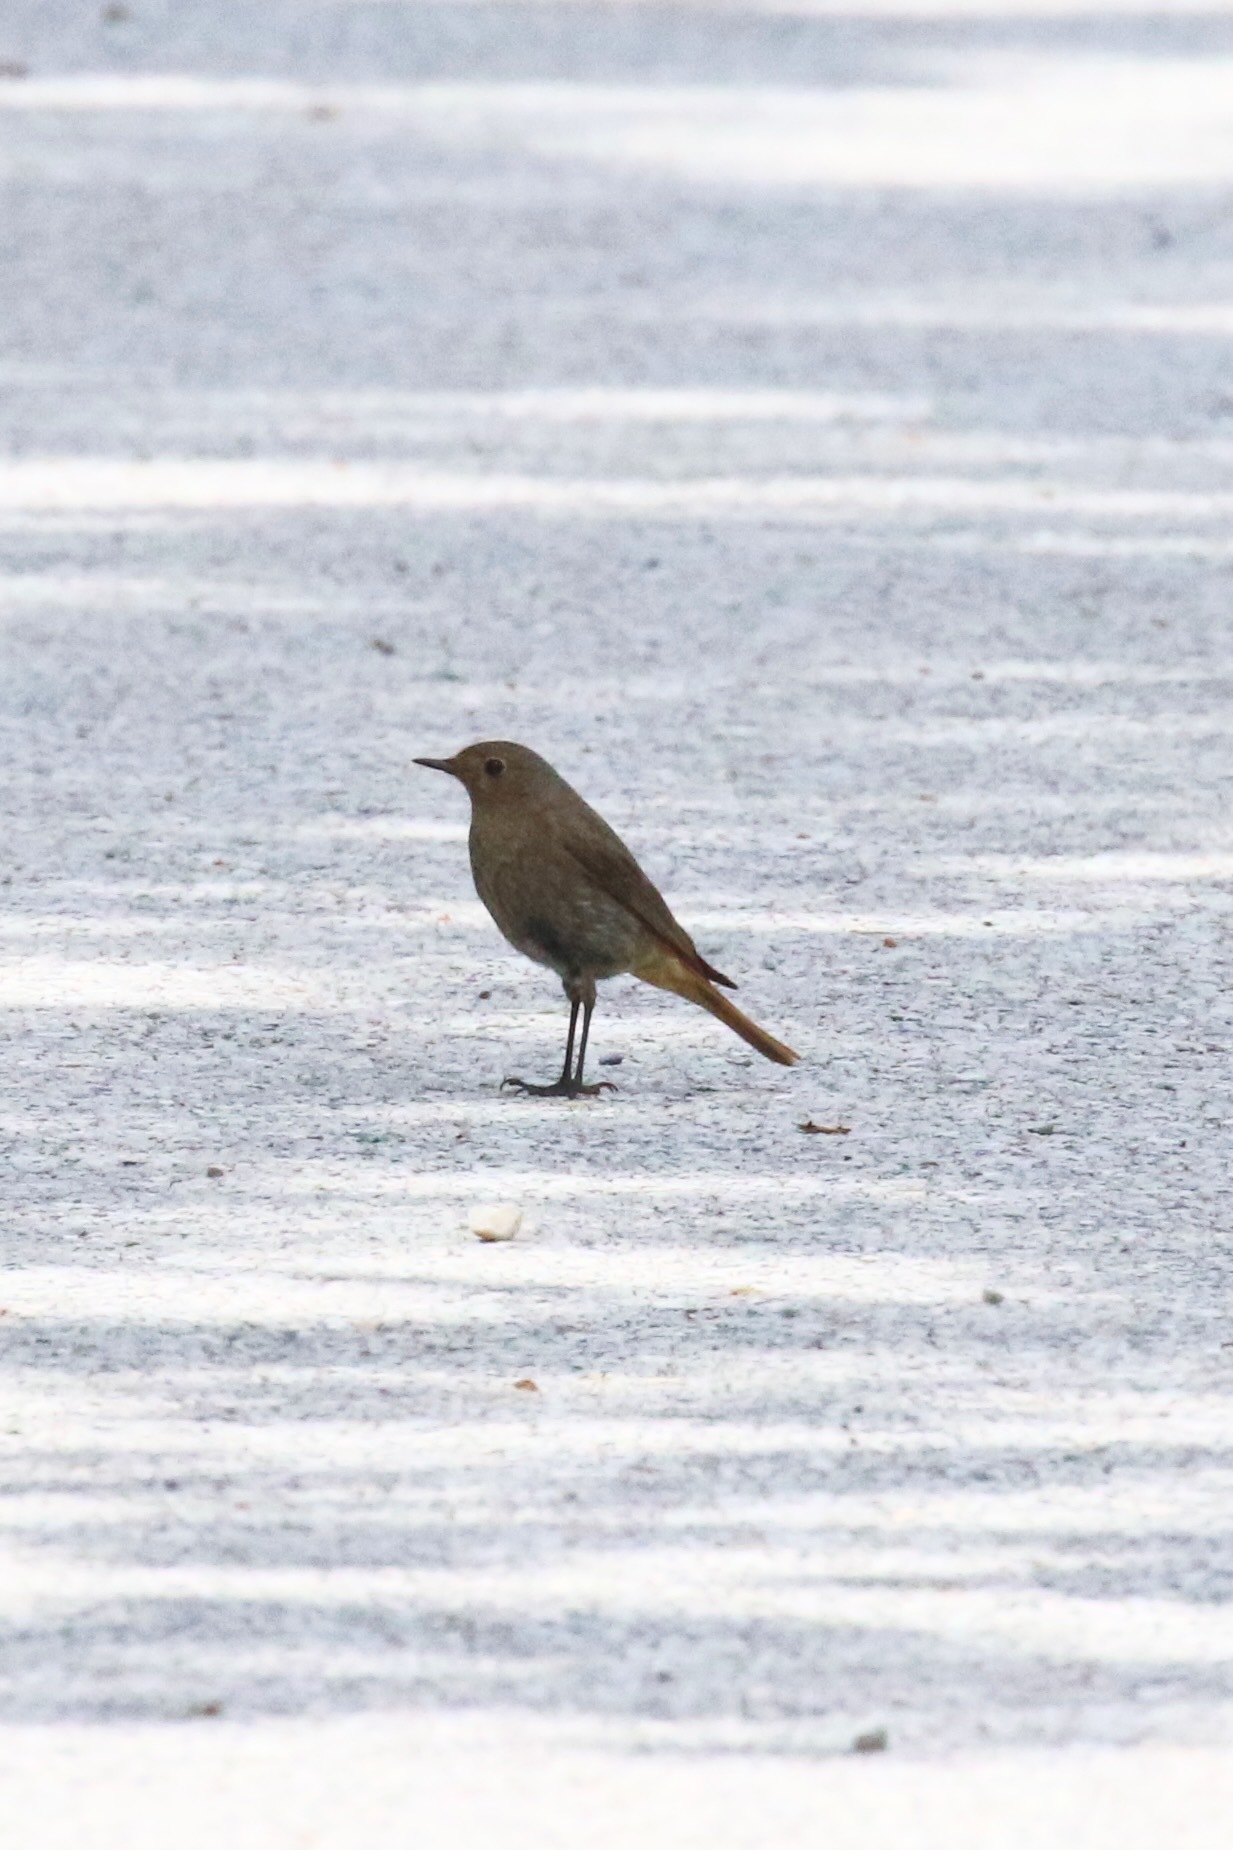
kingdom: Animalia
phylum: Chordata
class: Aves
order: Passeriformes
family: Muscicapidae
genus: Phoenicurus
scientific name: Phoenicurus ochruros
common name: Black redstart
